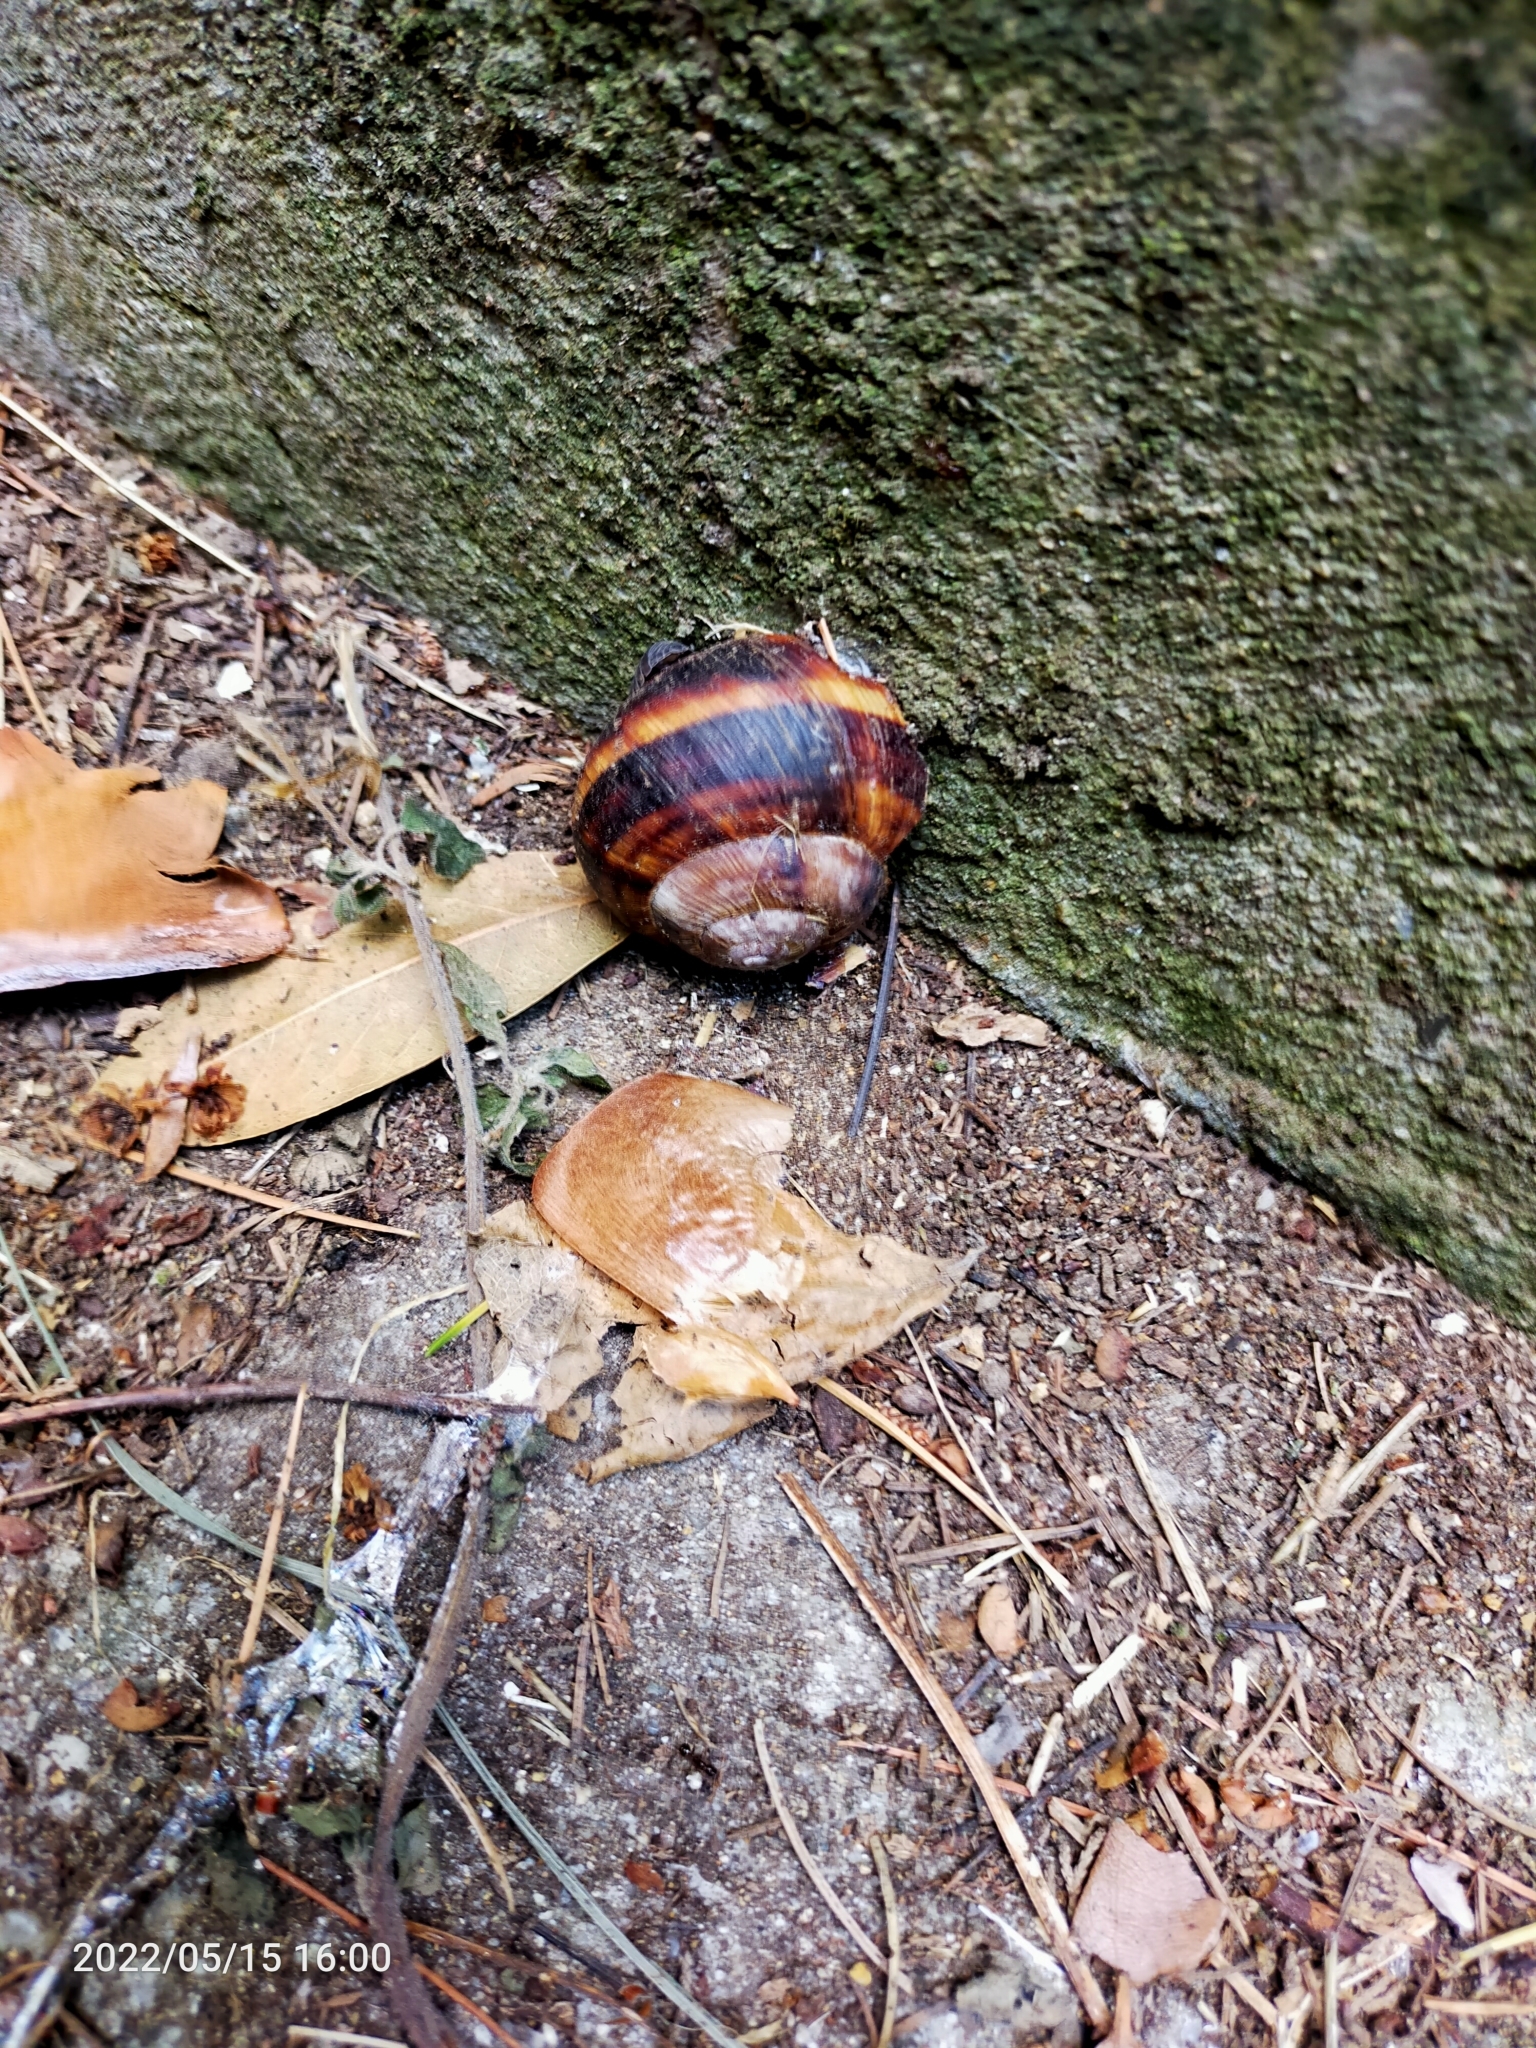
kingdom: Animalia
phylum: Mollusca
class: Gastropoda
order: Stylommatophora
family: Helicidae
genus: Helix
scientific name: Helix lucorum
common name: Turkish snail
